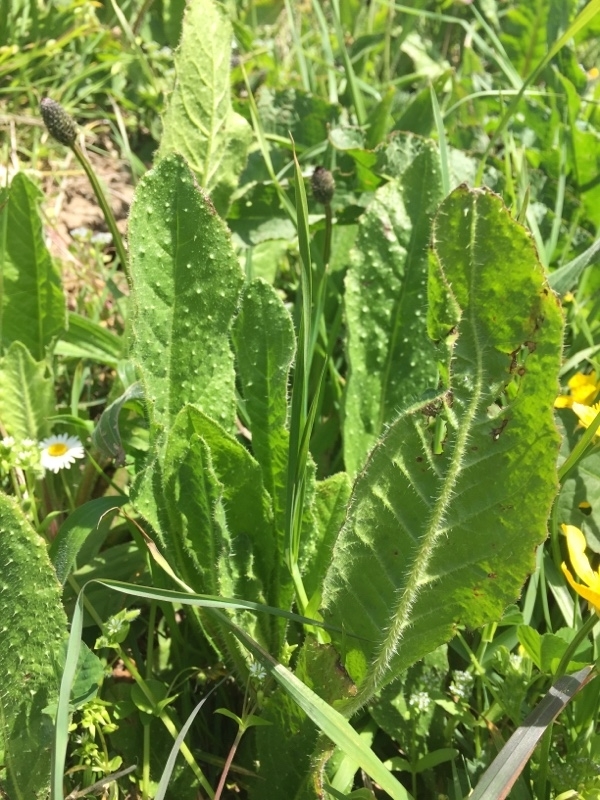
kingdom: Plantae
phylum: Tracheophyta
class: Magnoliopsida
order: Asterales
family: Asteraceae
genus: Helminthotheca
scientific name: Helminthotheca echioides
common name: Ox-tongue
